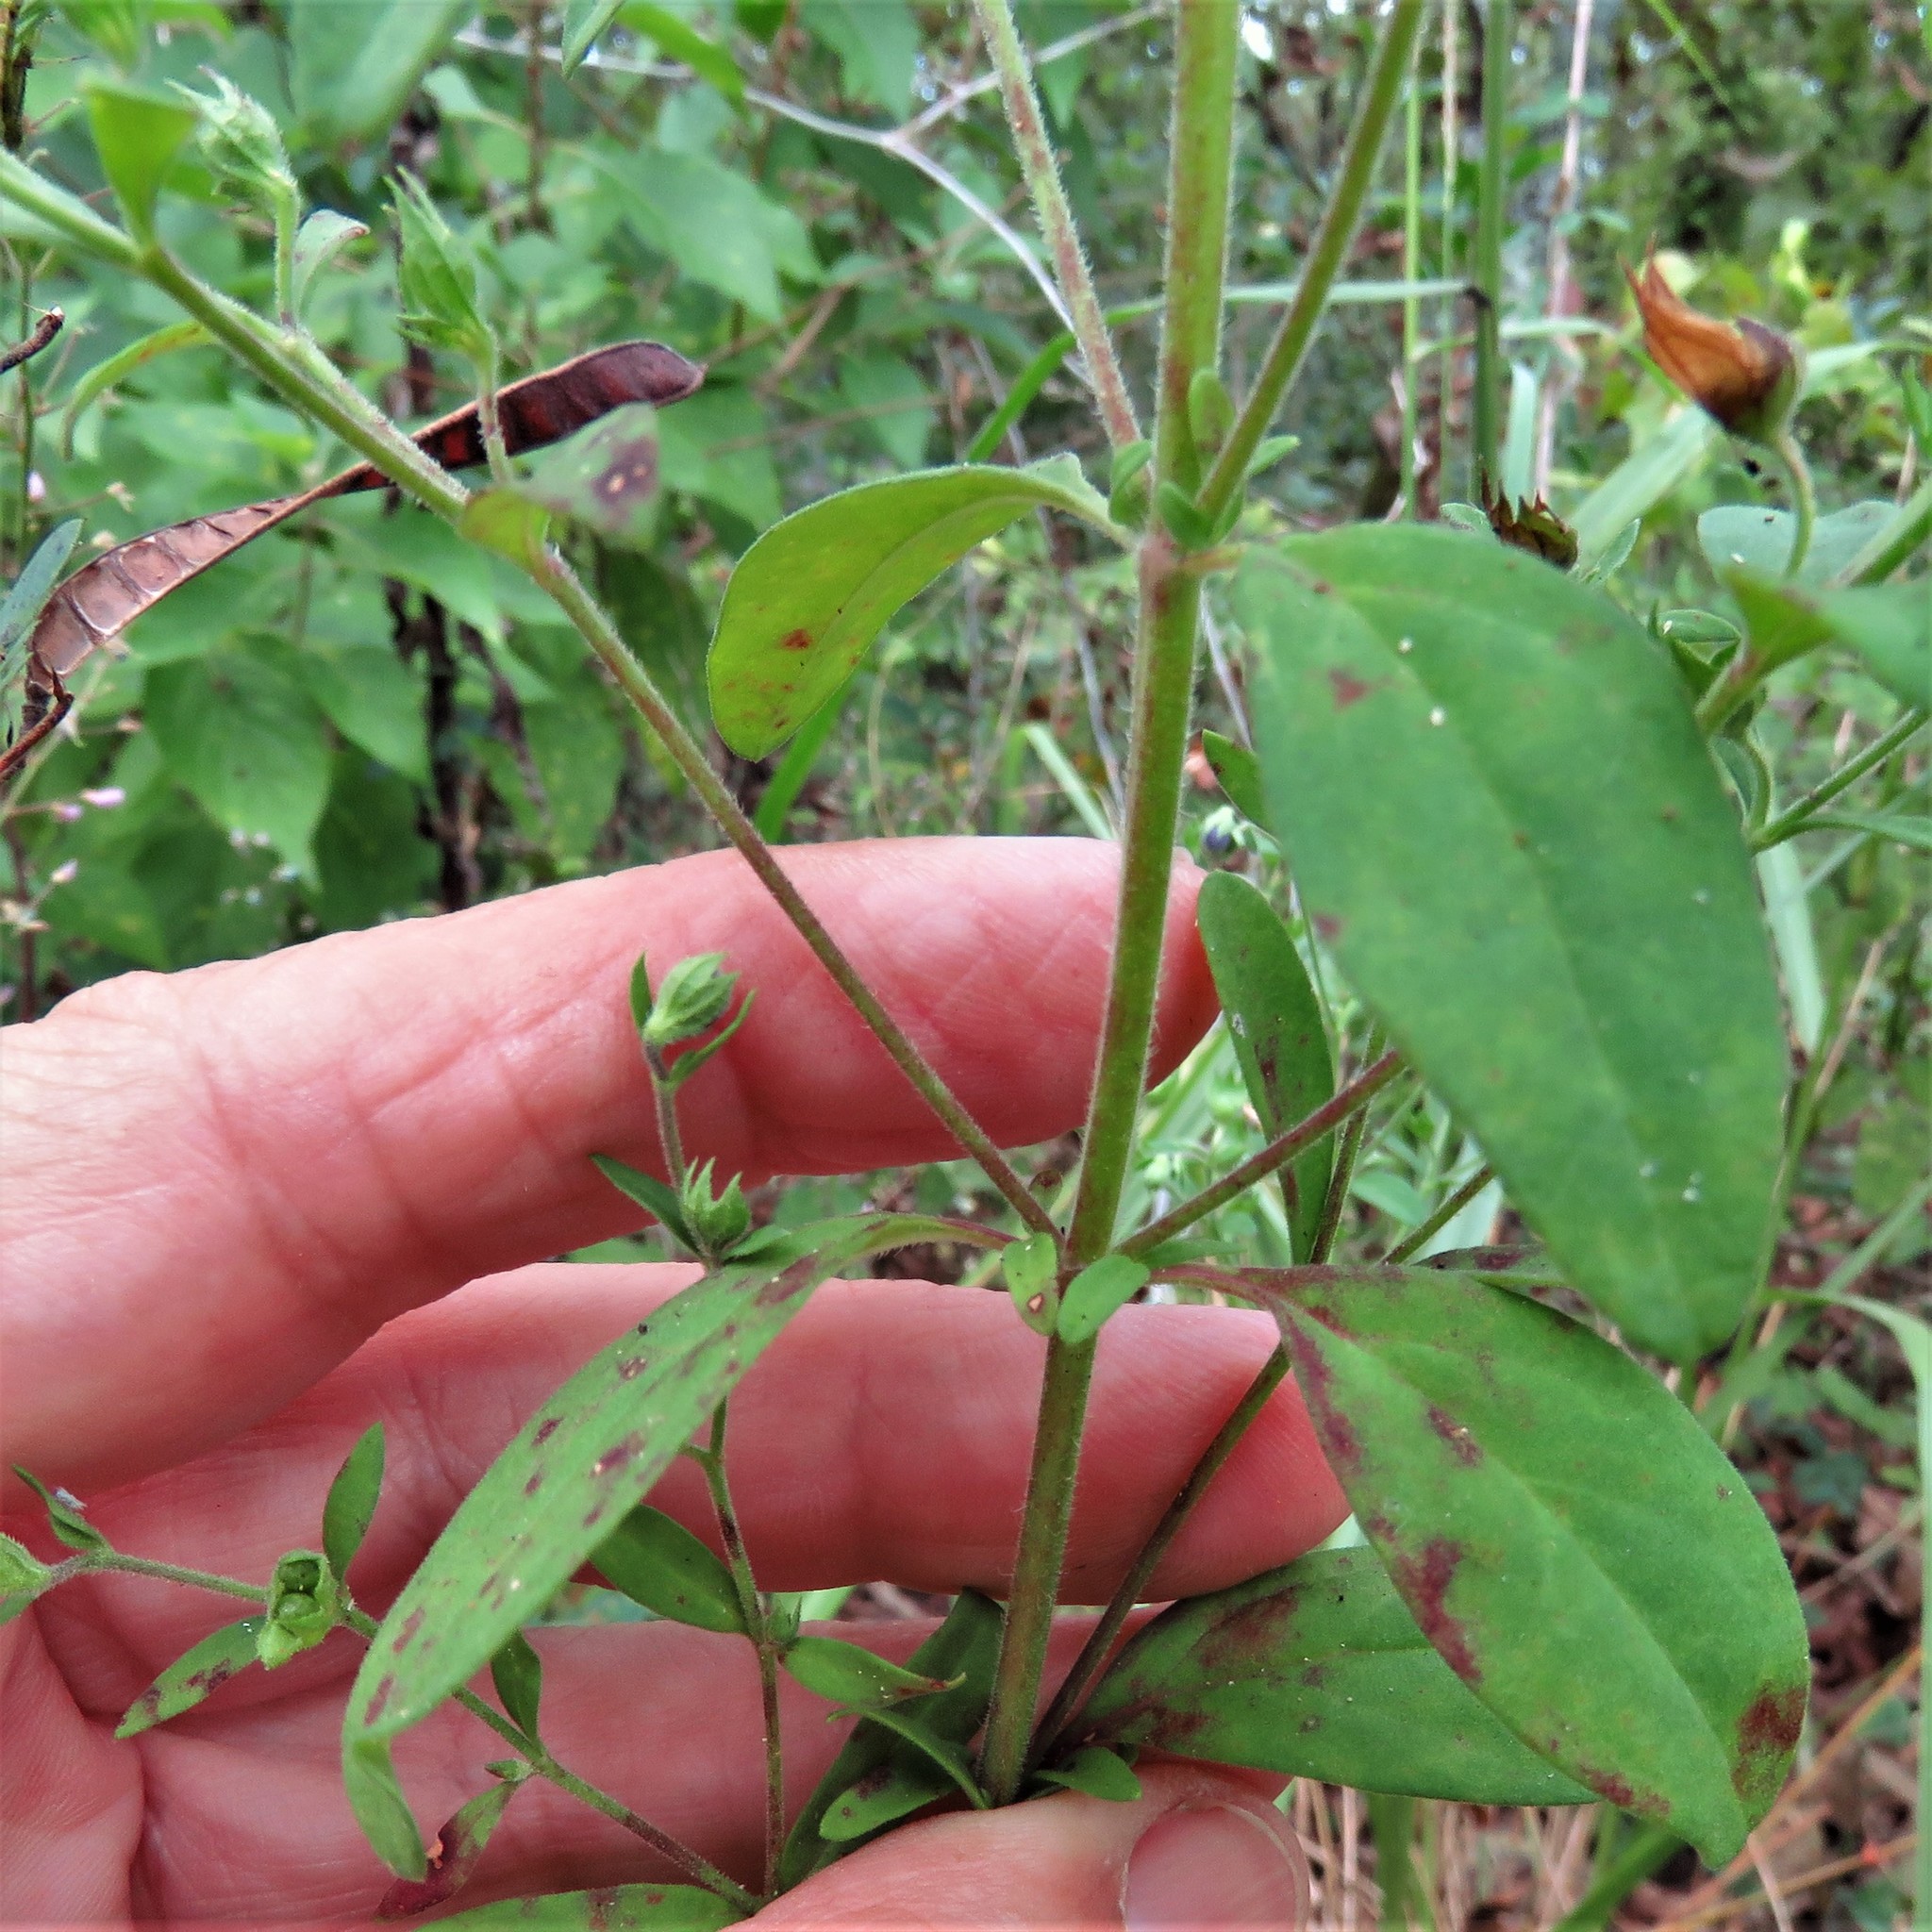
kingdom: Plantae
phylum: Tracheophyta
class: Magnoliopsida
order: Lamiales
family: Lamiaceae
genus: Trichostema
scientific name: Trichostema dichotomum
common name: Bastard pennyroyal
